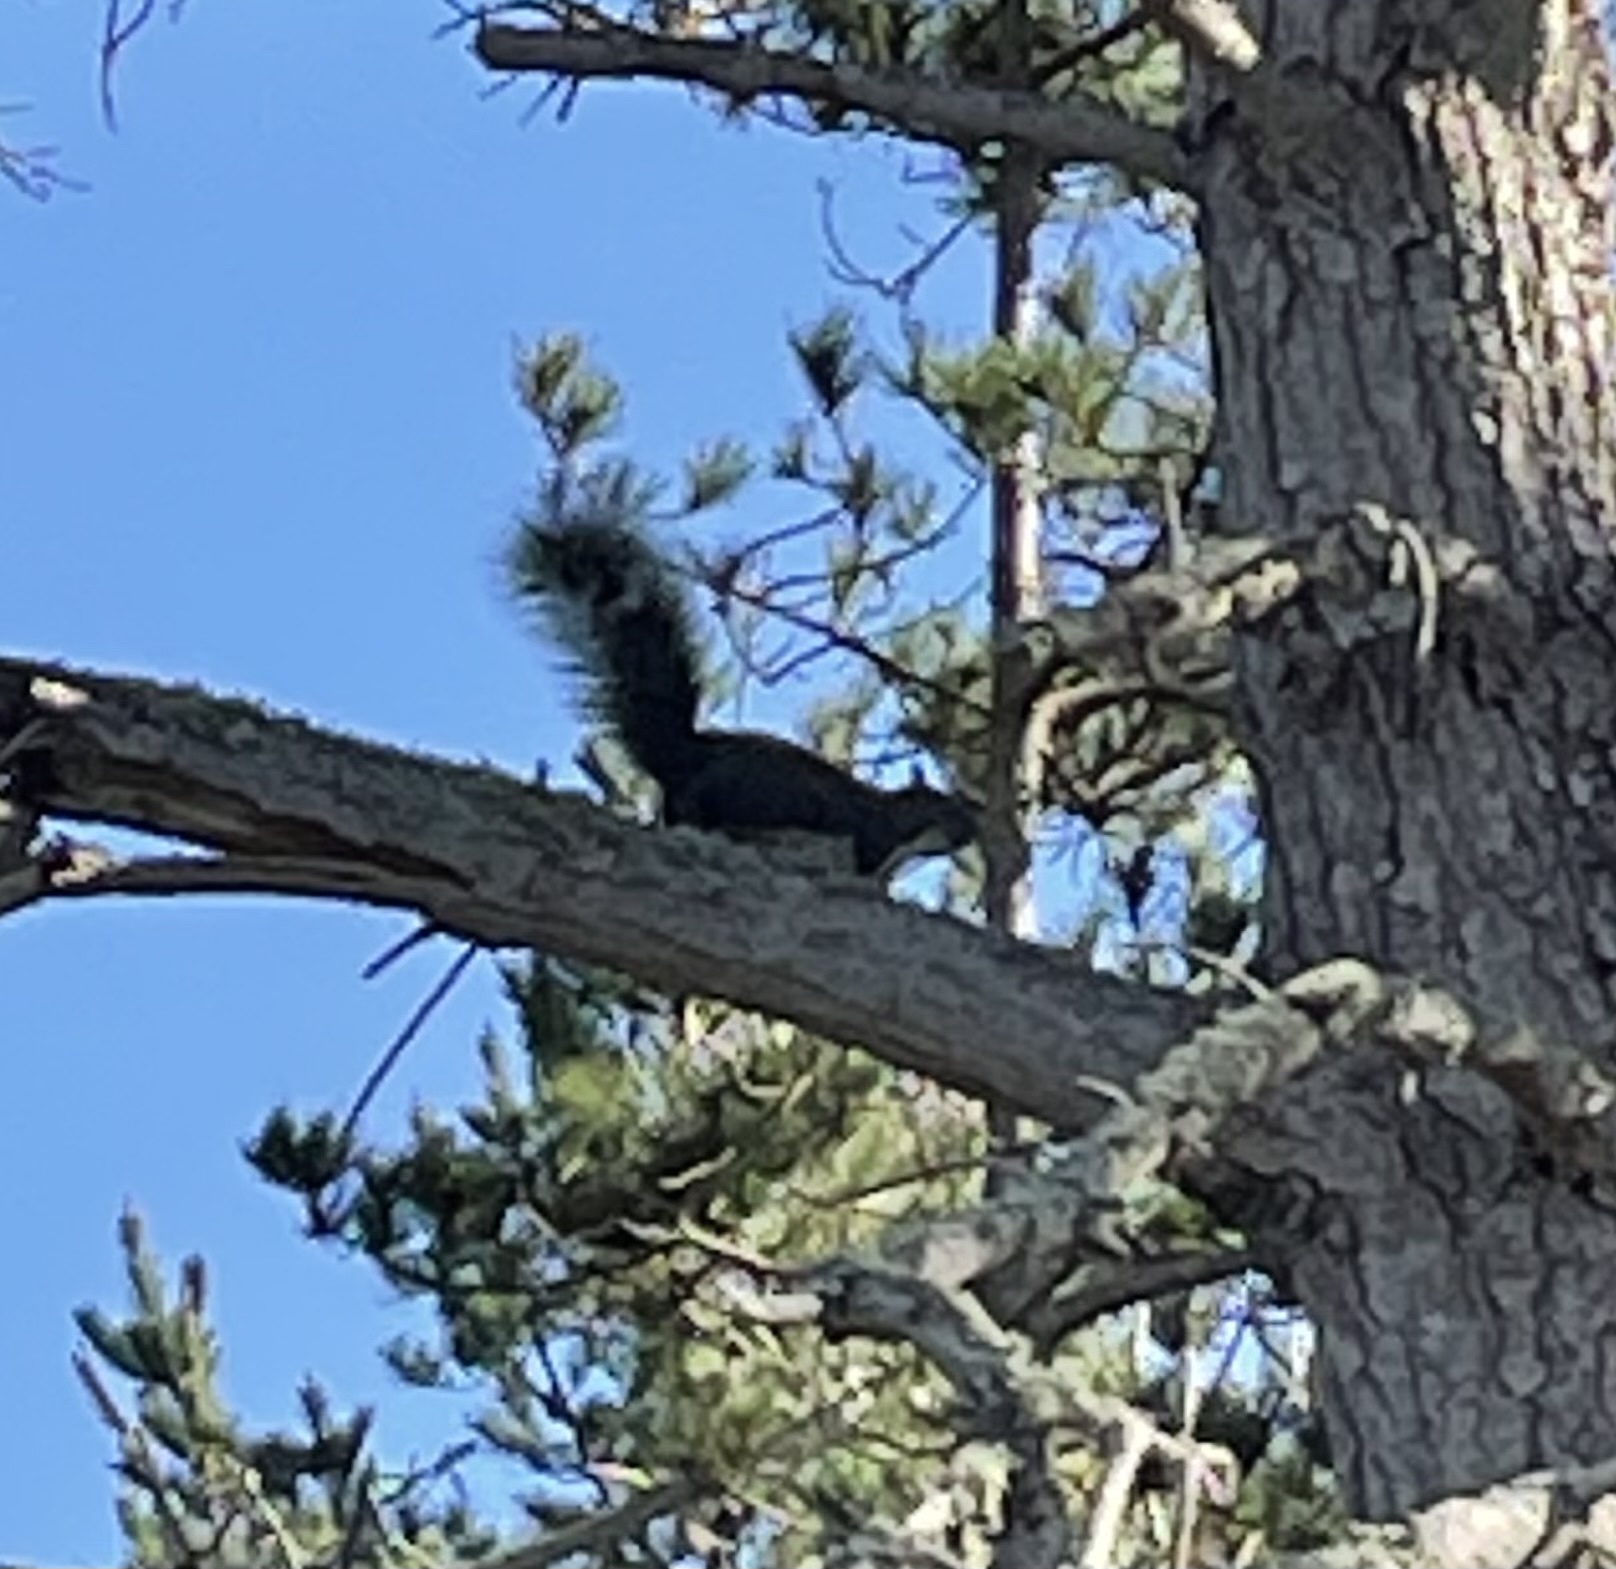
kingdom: Animalia
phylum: Chordata
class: Mammalia
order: Rodentia
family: Sciuridae
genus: Sciurus
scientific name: Sciurus griseus
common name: Western gray squirrel
